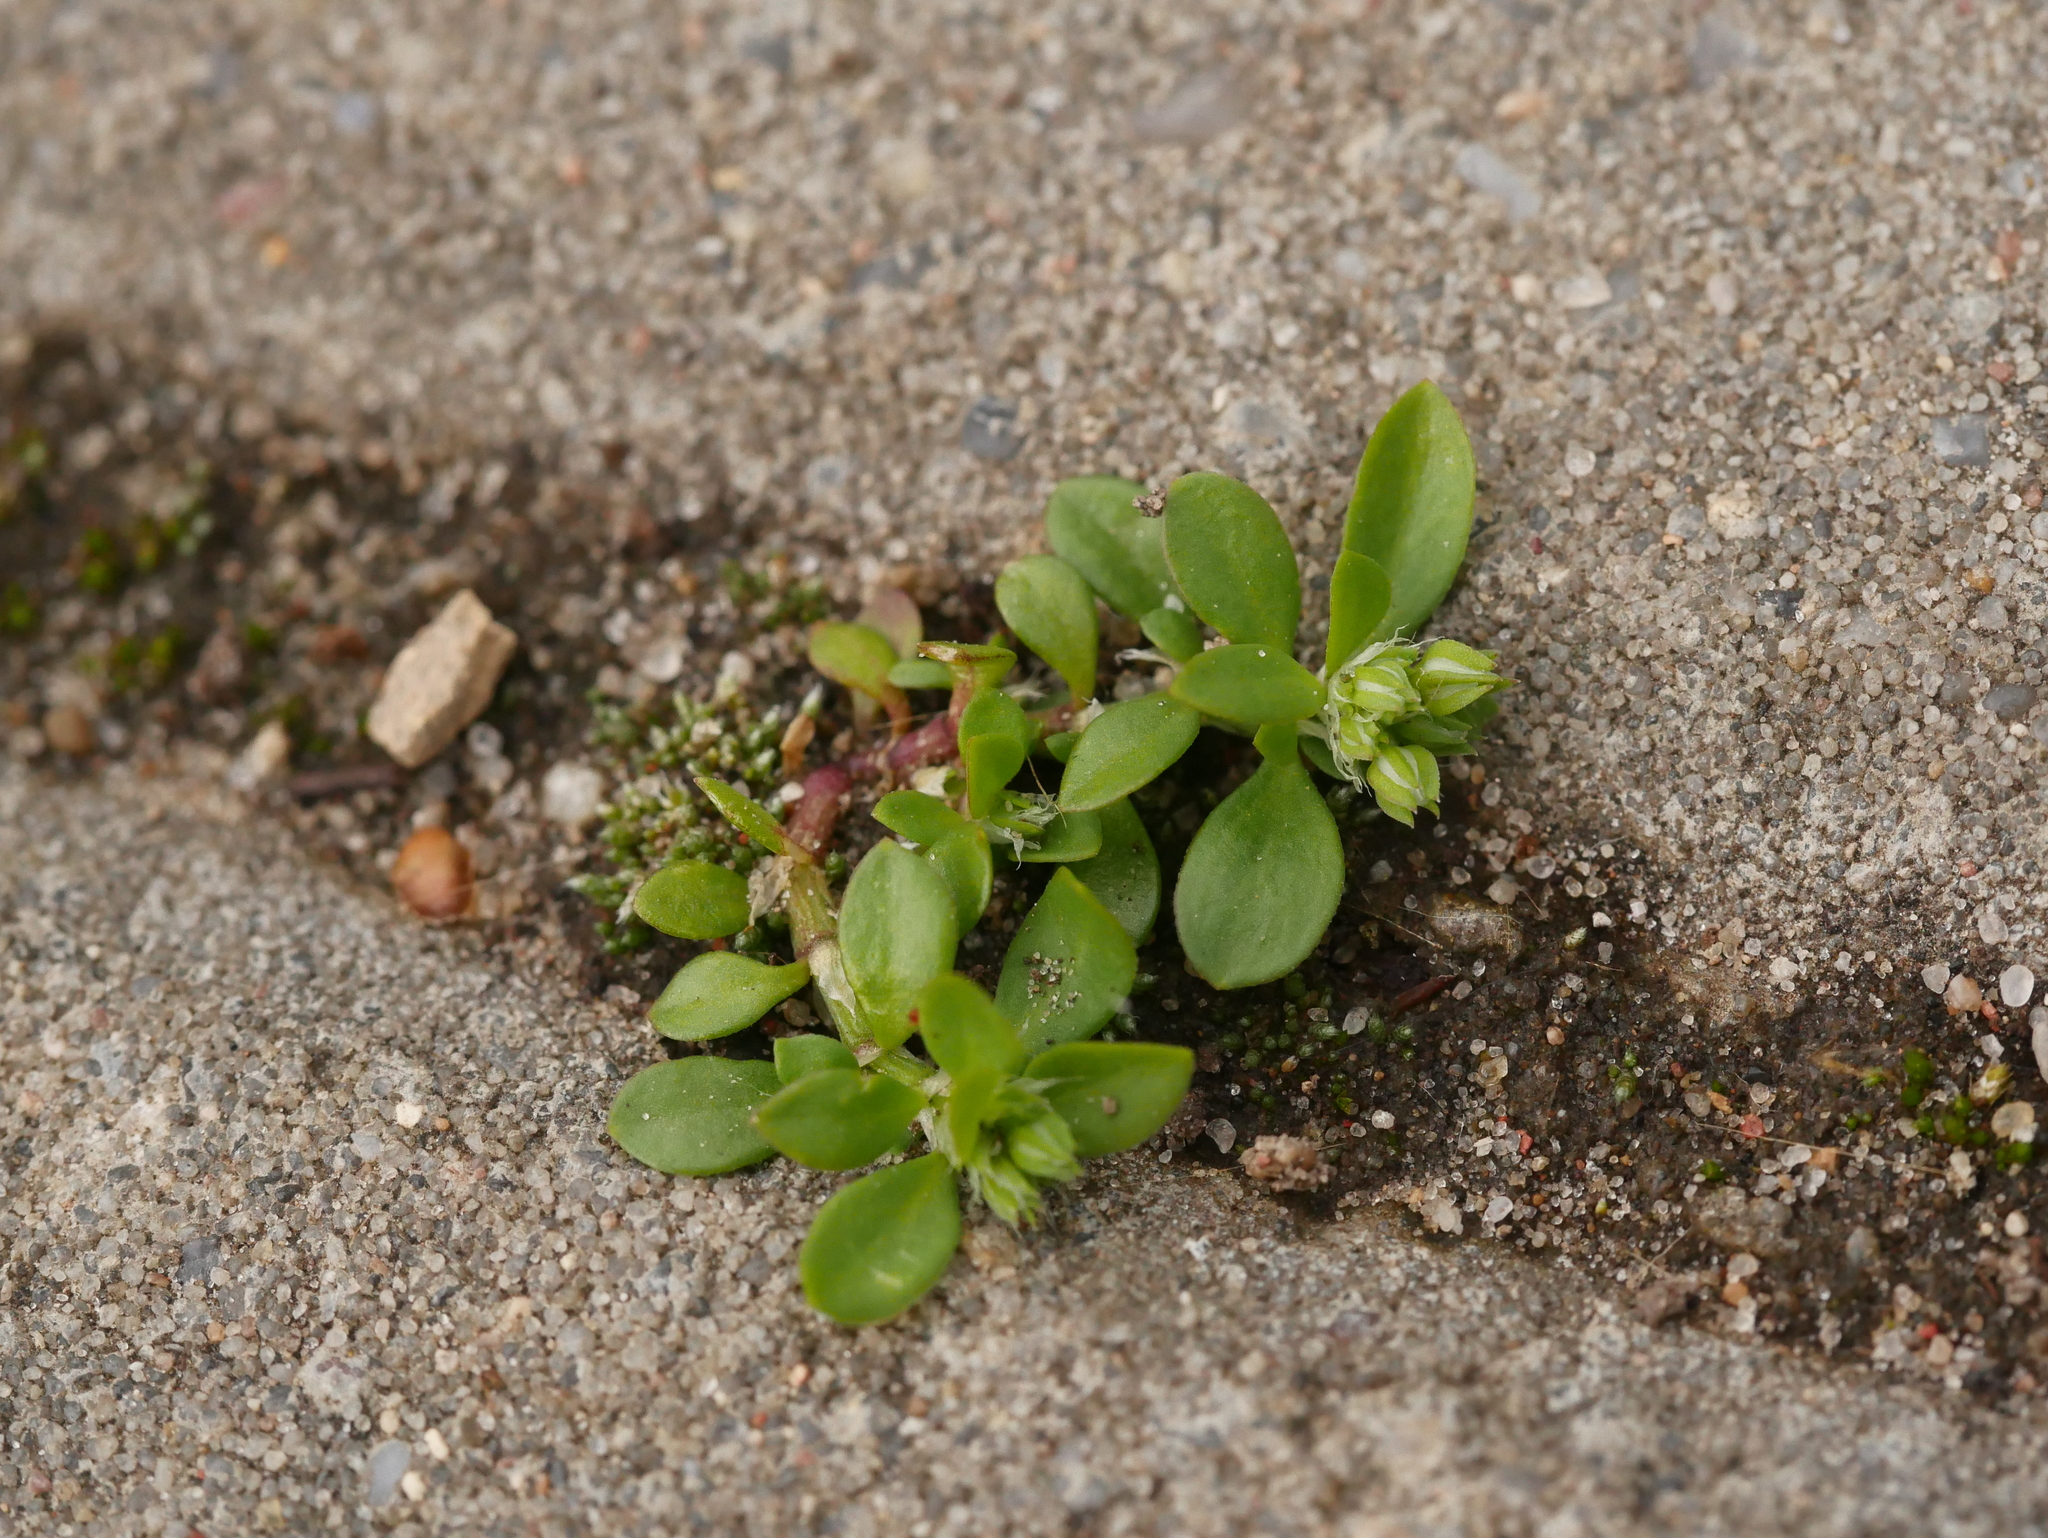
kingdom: Plantae
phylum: Tracheophyta
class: Magnoliopsida
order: Caryophyllales
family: Caryophyllaceae
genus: Polycarpon
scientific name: Polycarpon tetraphyllum
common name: Four-leaved all-seed
